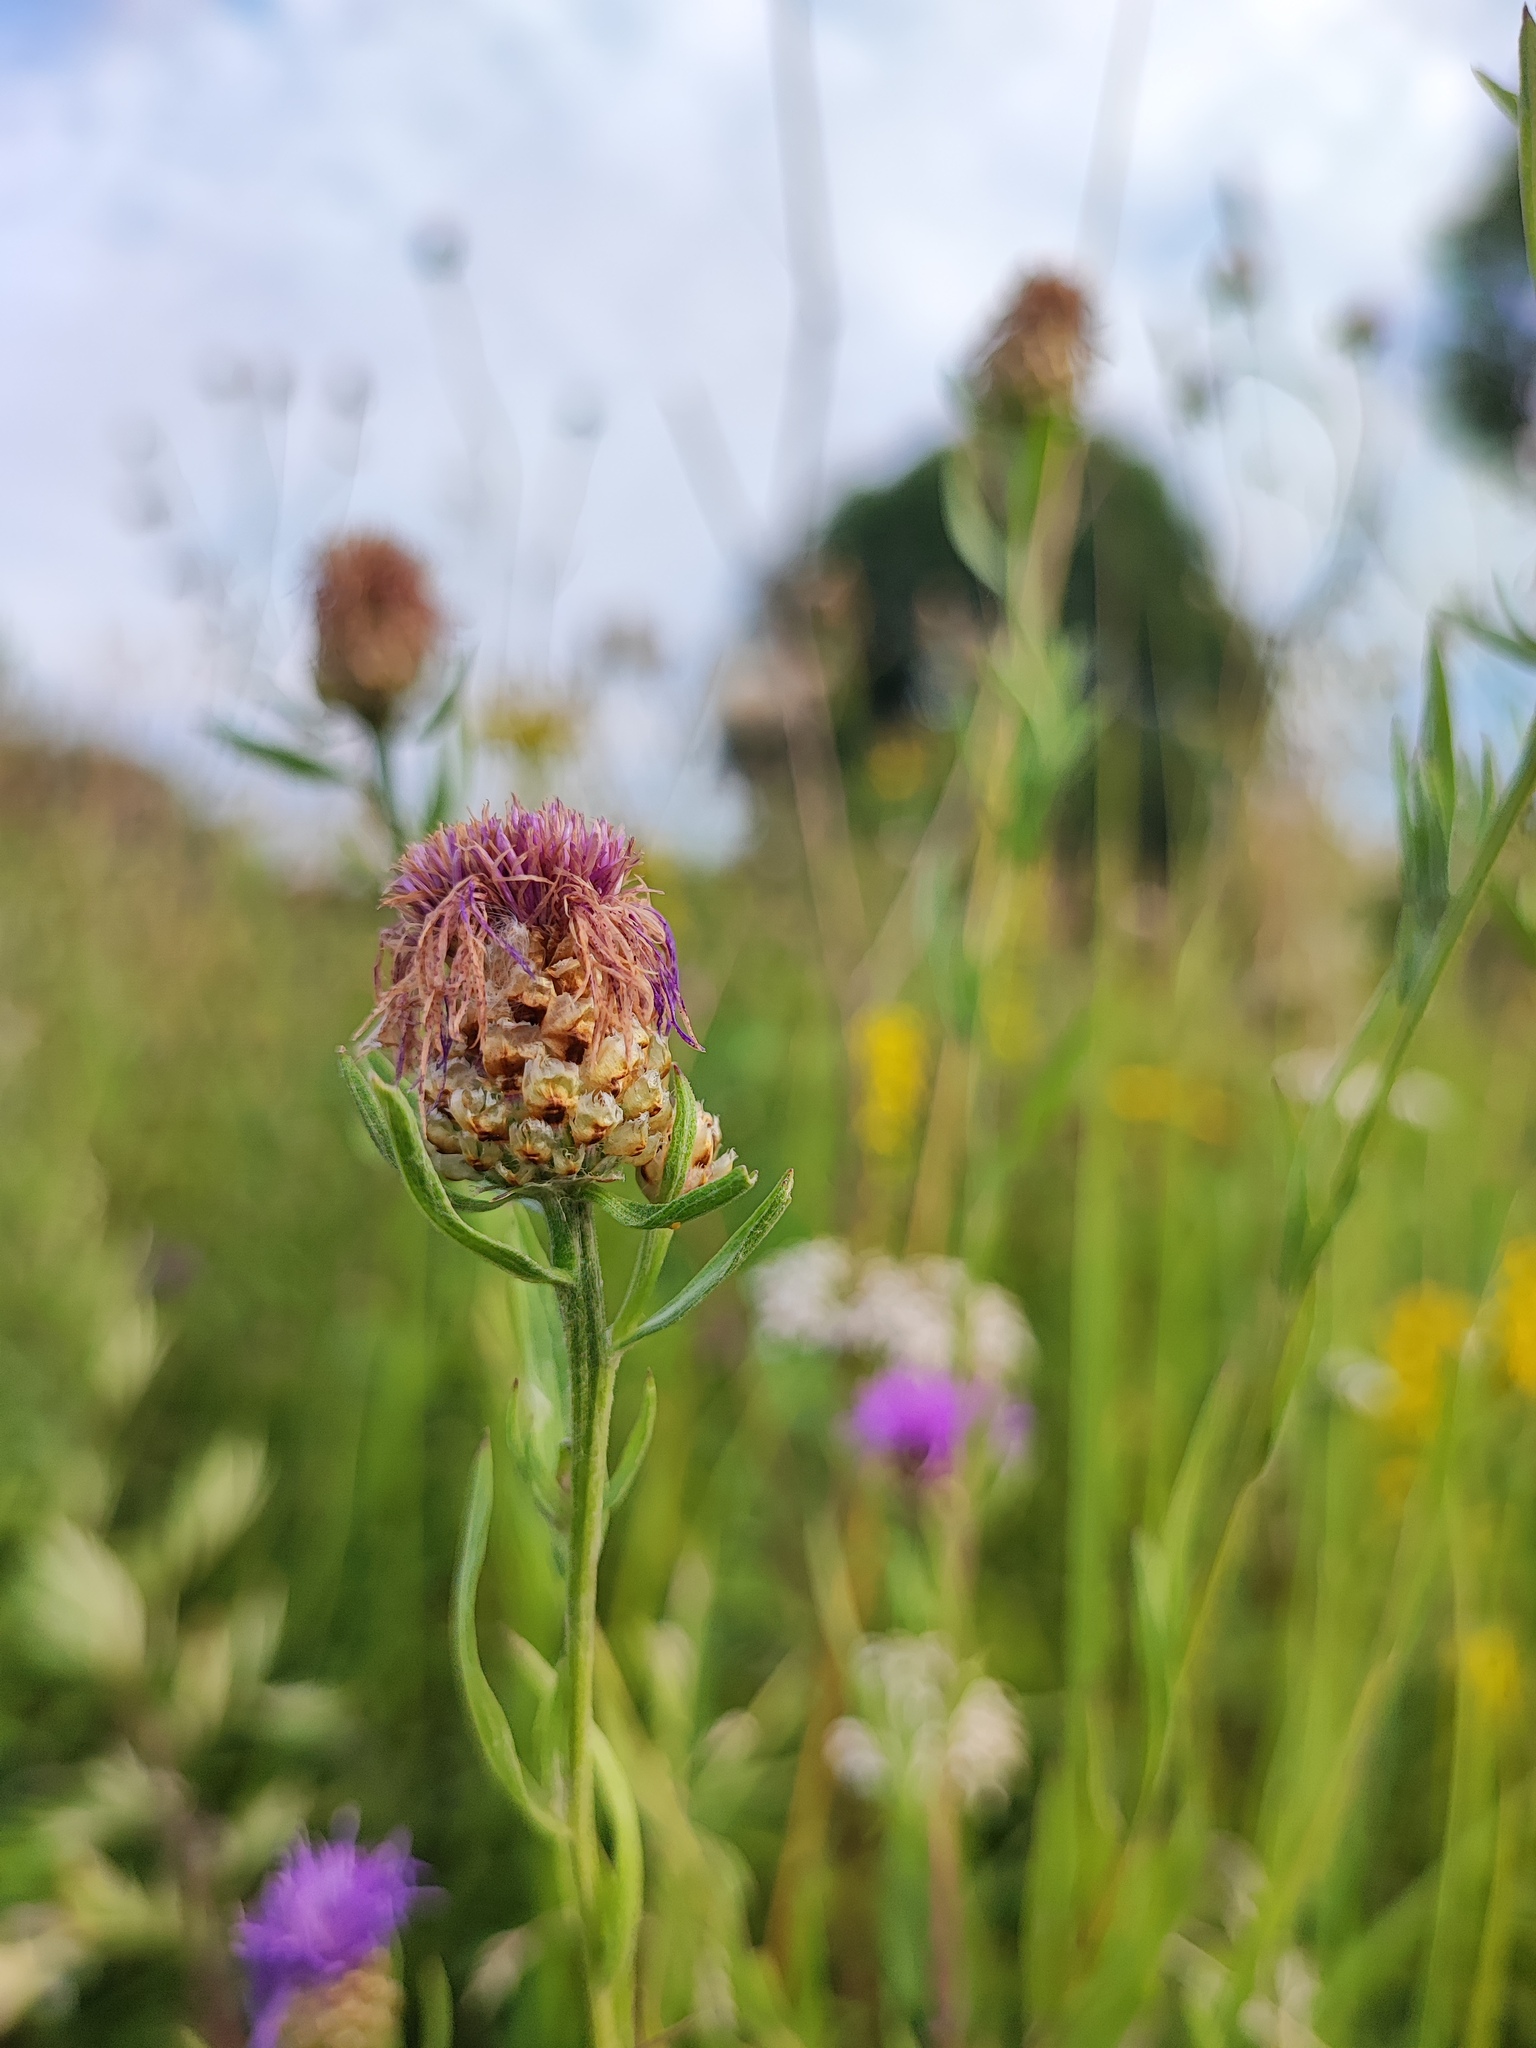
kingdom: Plantae
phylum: Tracheophyta
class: Magnoliopsida
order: Asterales
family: Asteraceae
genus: Centaurea
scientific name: Centaurea jacea
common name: Brown knapweed
